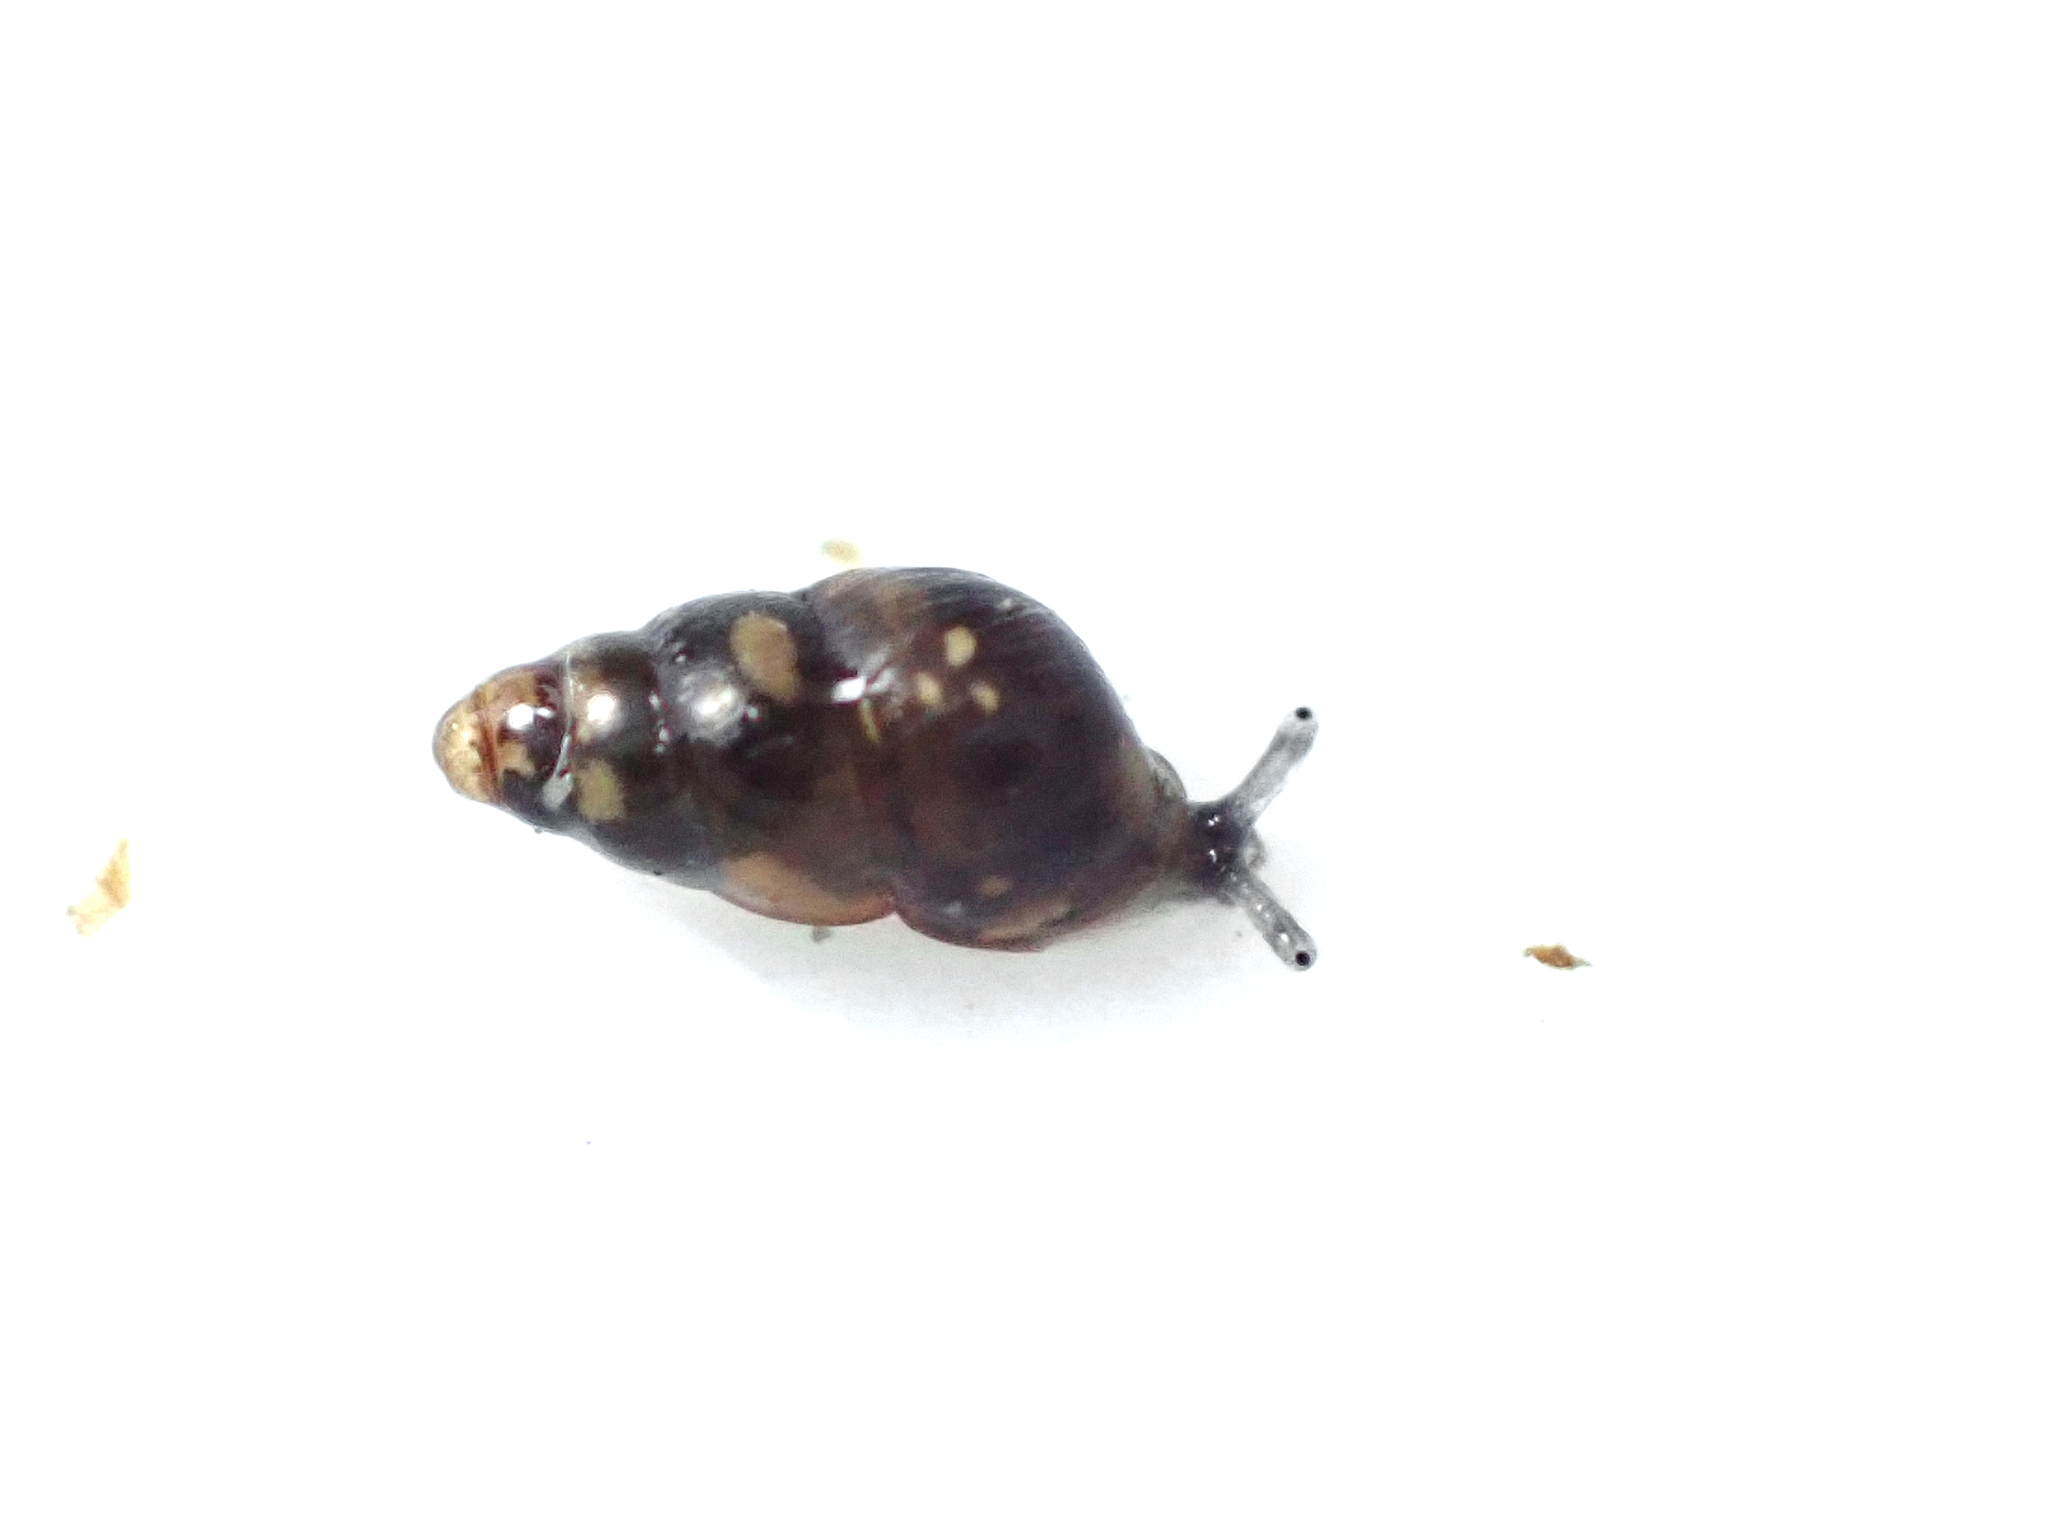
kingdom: Animalia
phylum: Mollusca
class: Gastropoda
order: Stylommatophora
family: Achatinellidae
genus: Tornatellinops
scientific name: Tornatellinops novoseelandicus
